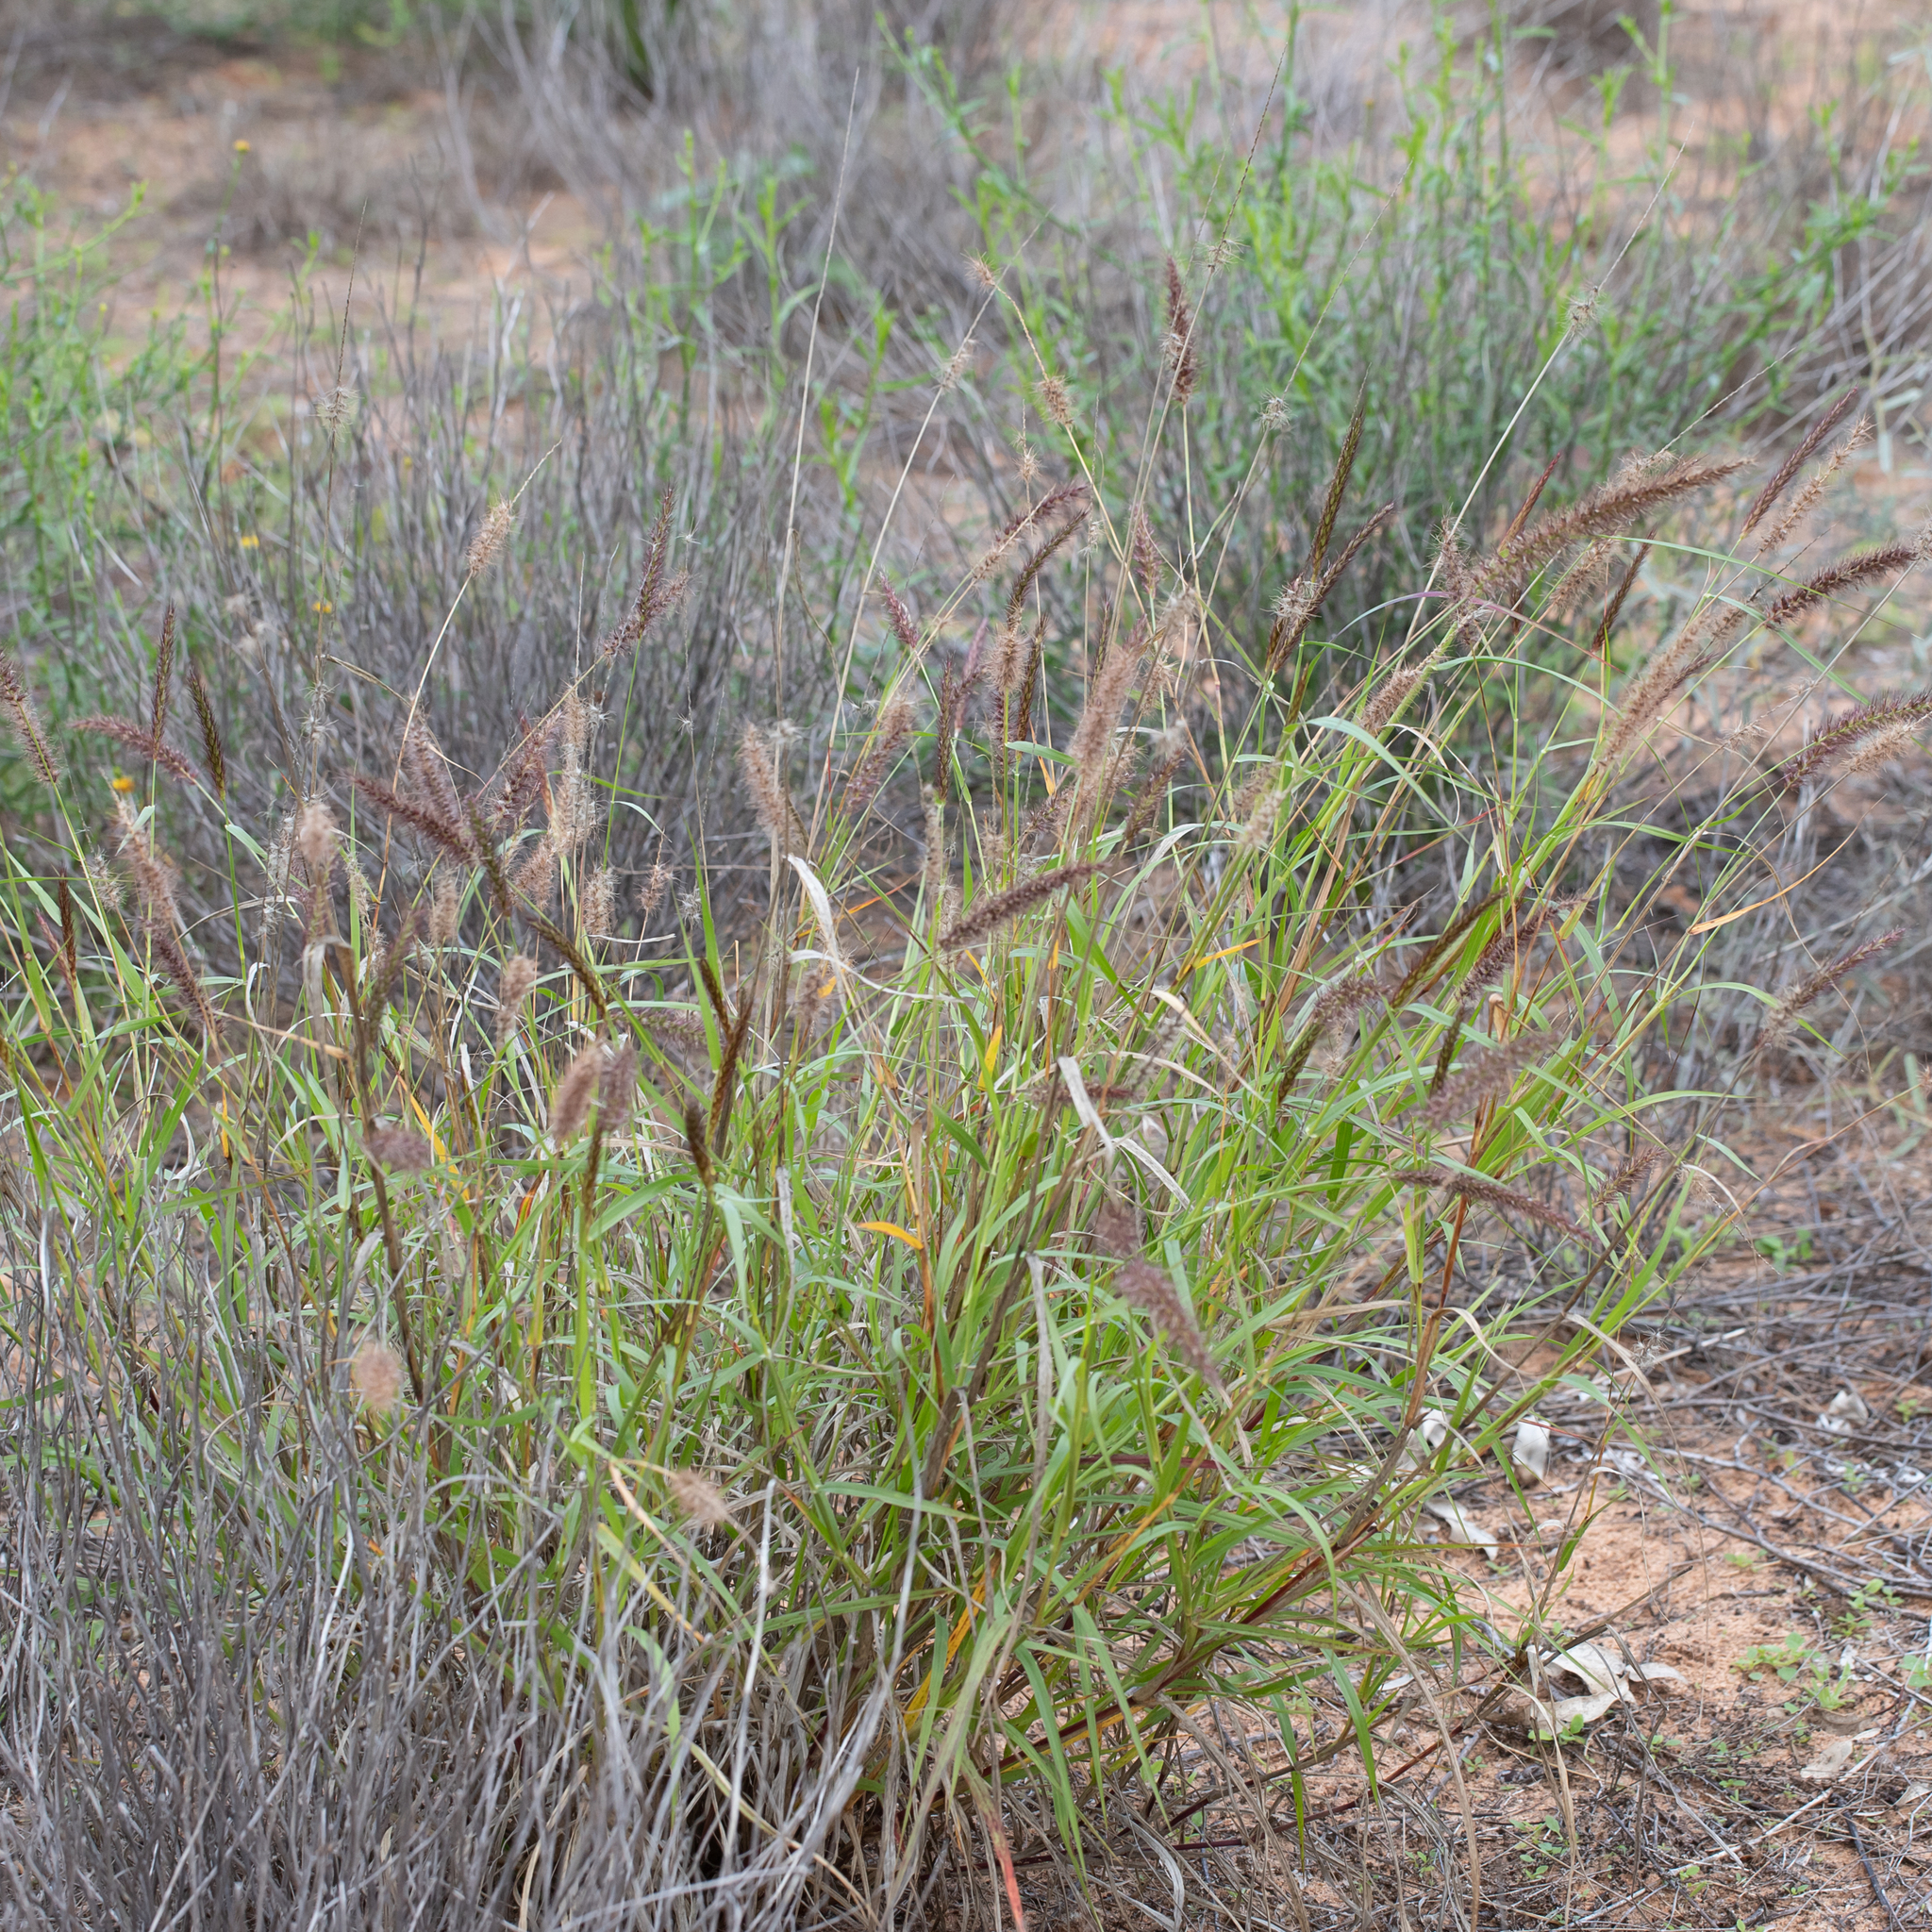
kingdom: Plantae
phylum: Tracheophyta
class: Liliopsida
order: Poales
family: Poaceae
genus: Cenchrus
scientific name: Cenchrus ciliaris
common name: Buffelgrass
